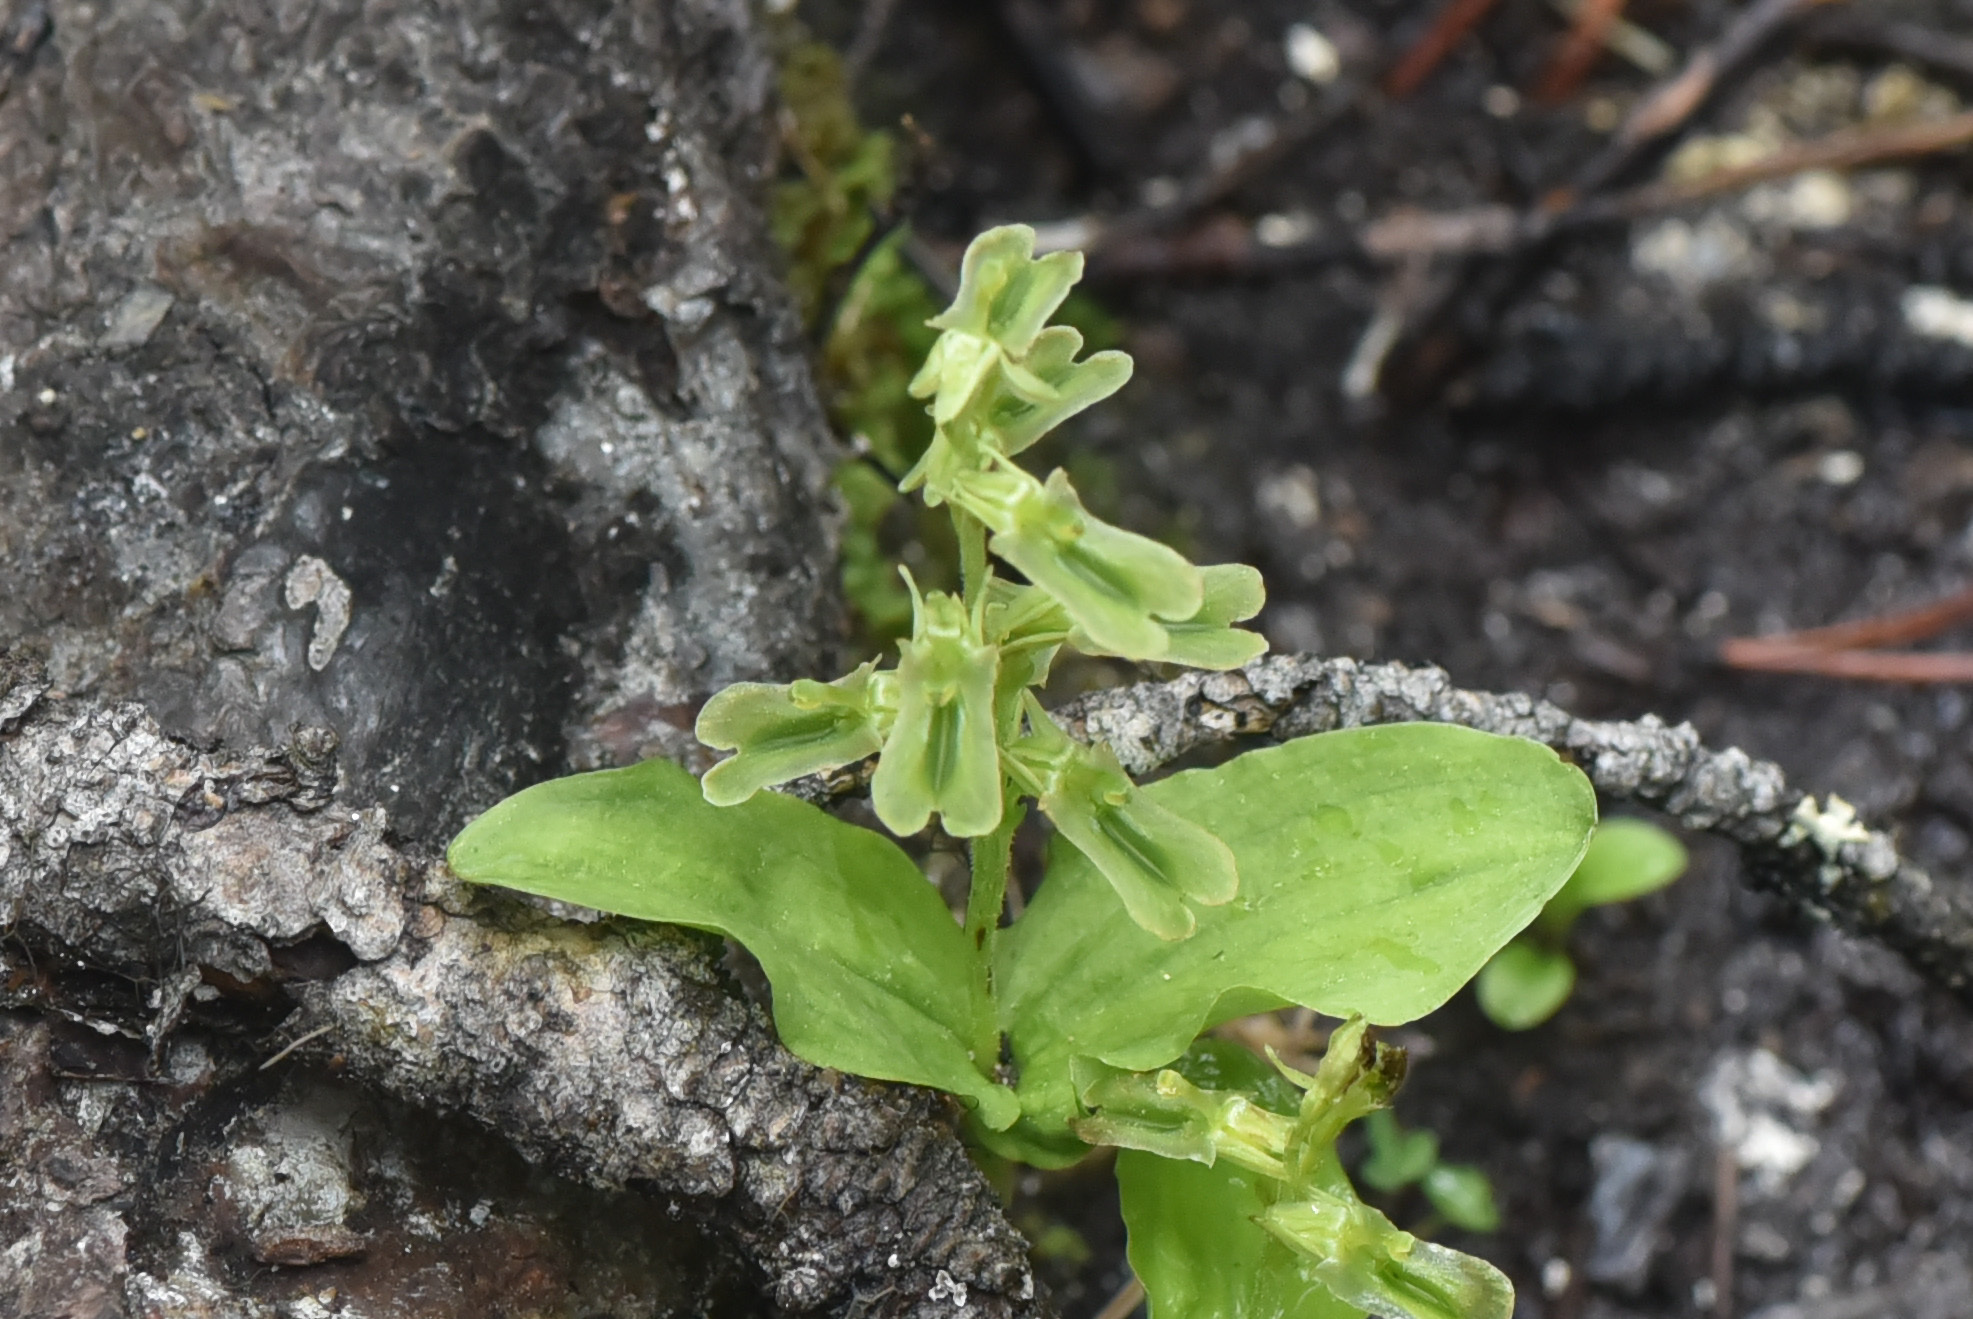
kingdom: Plantae
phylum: Tracheophyta
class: Liliopsida
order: Asparagales
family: Orchidaceae
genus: Neottia
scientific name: Neottia borealis
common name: Northern twayblade
